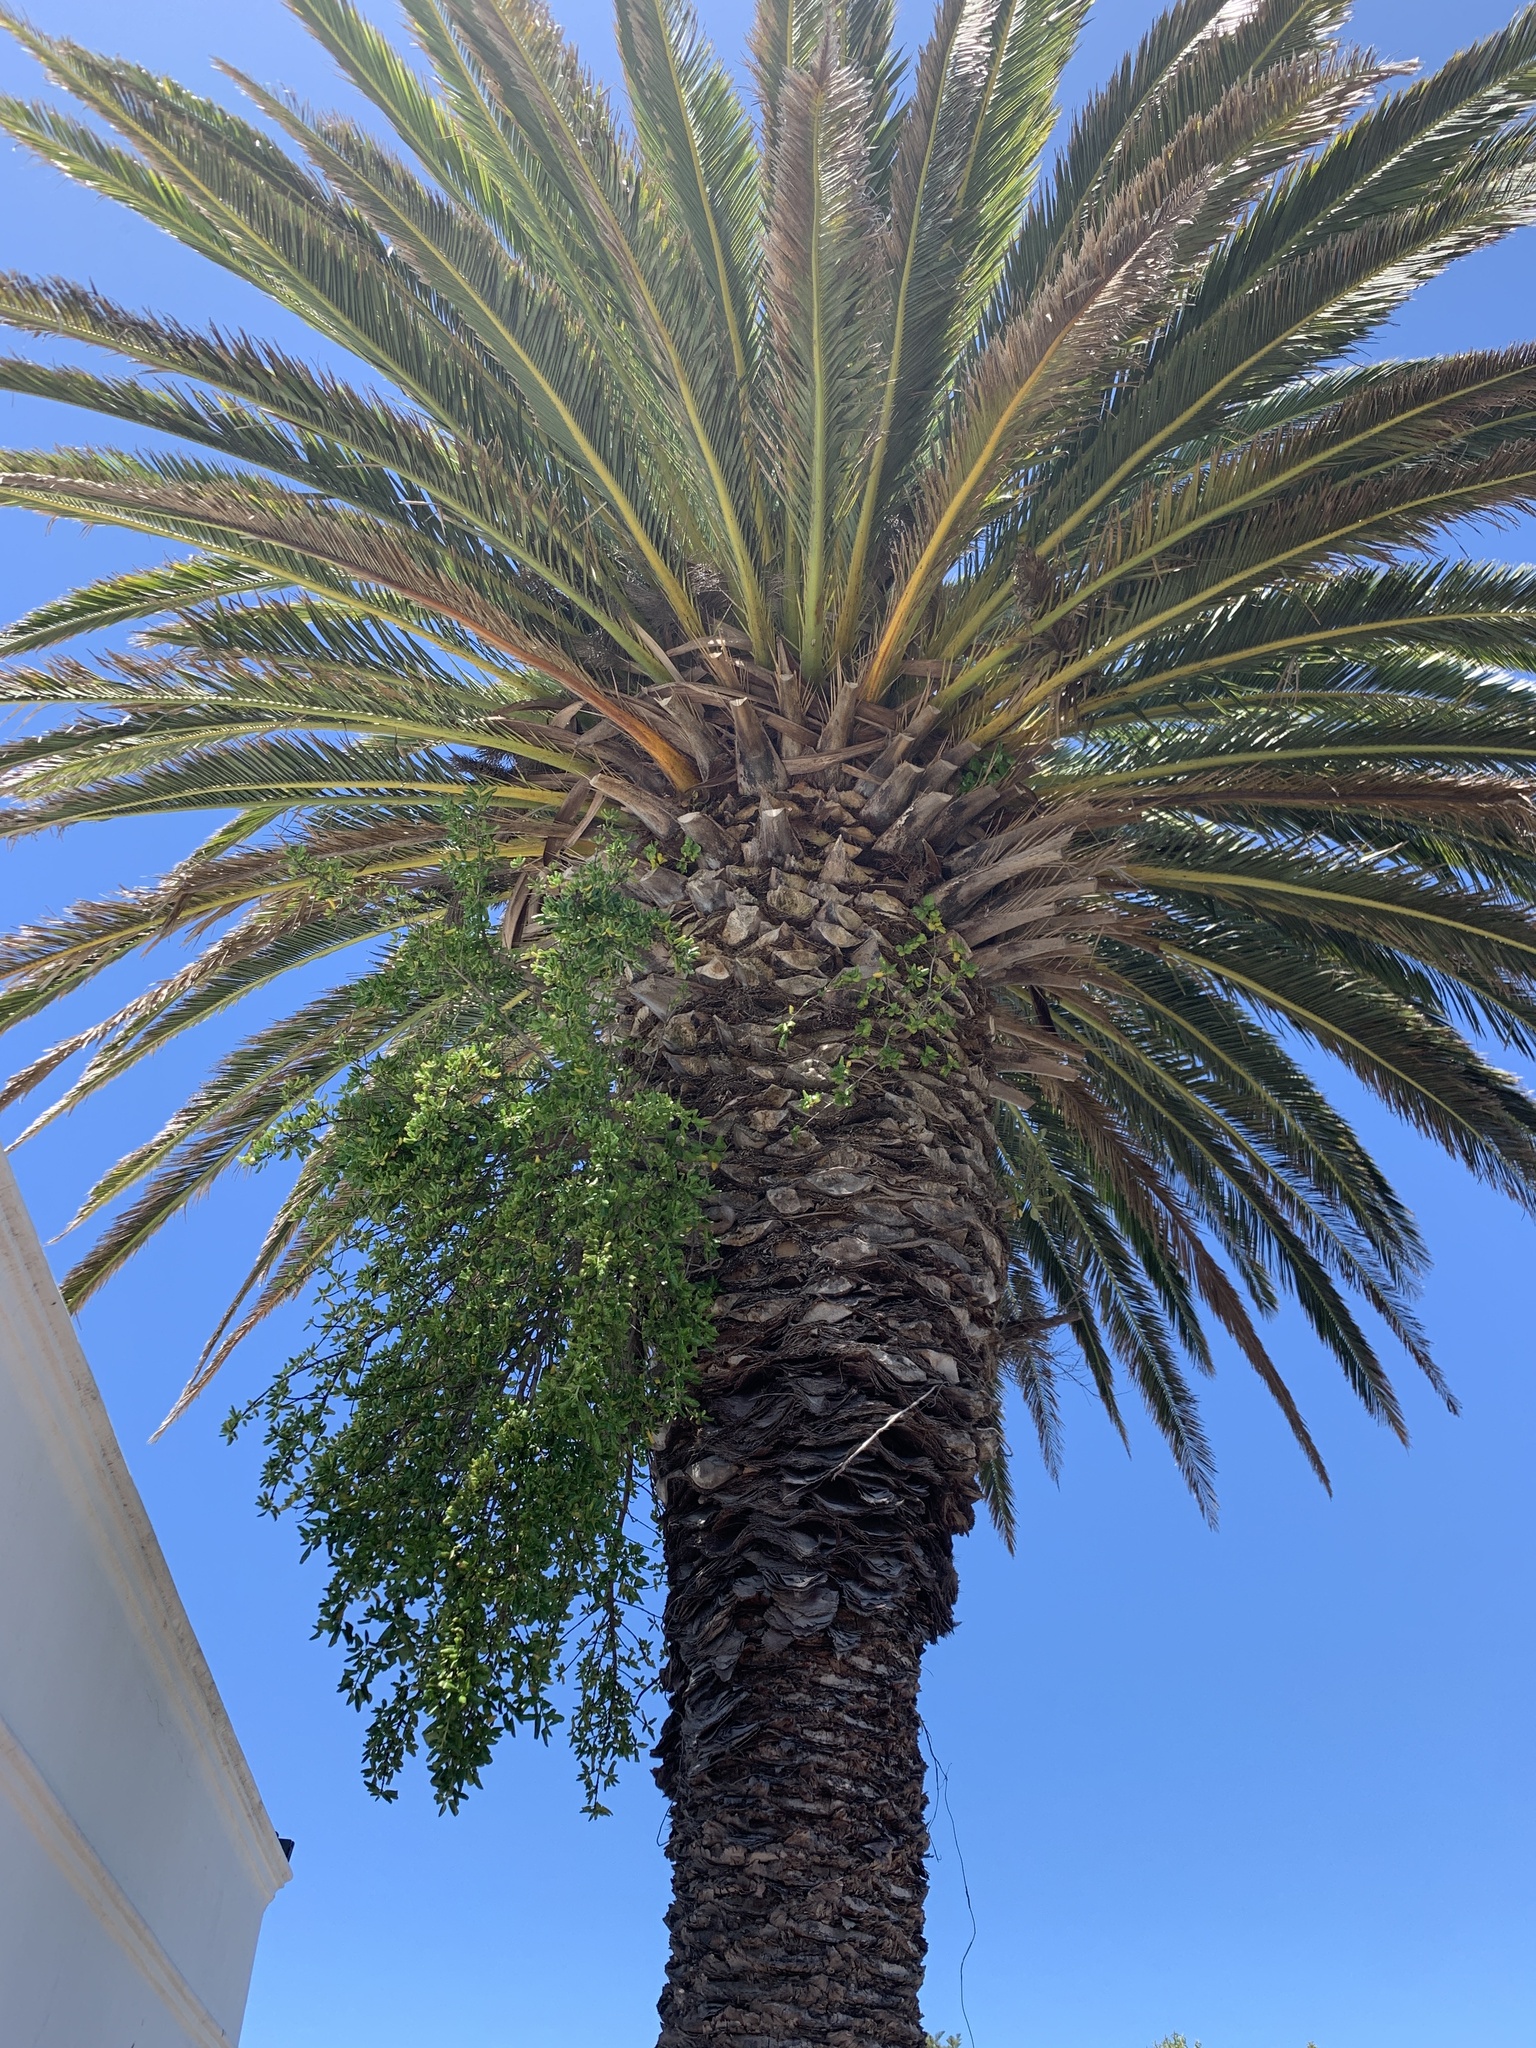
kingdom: Plantae
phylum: Tracheophyta
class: Magnoliopsida
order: Gentianales
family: Rubiaceae
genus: Coprosma
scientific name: Coprosma repens
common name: Tree bedstraw
